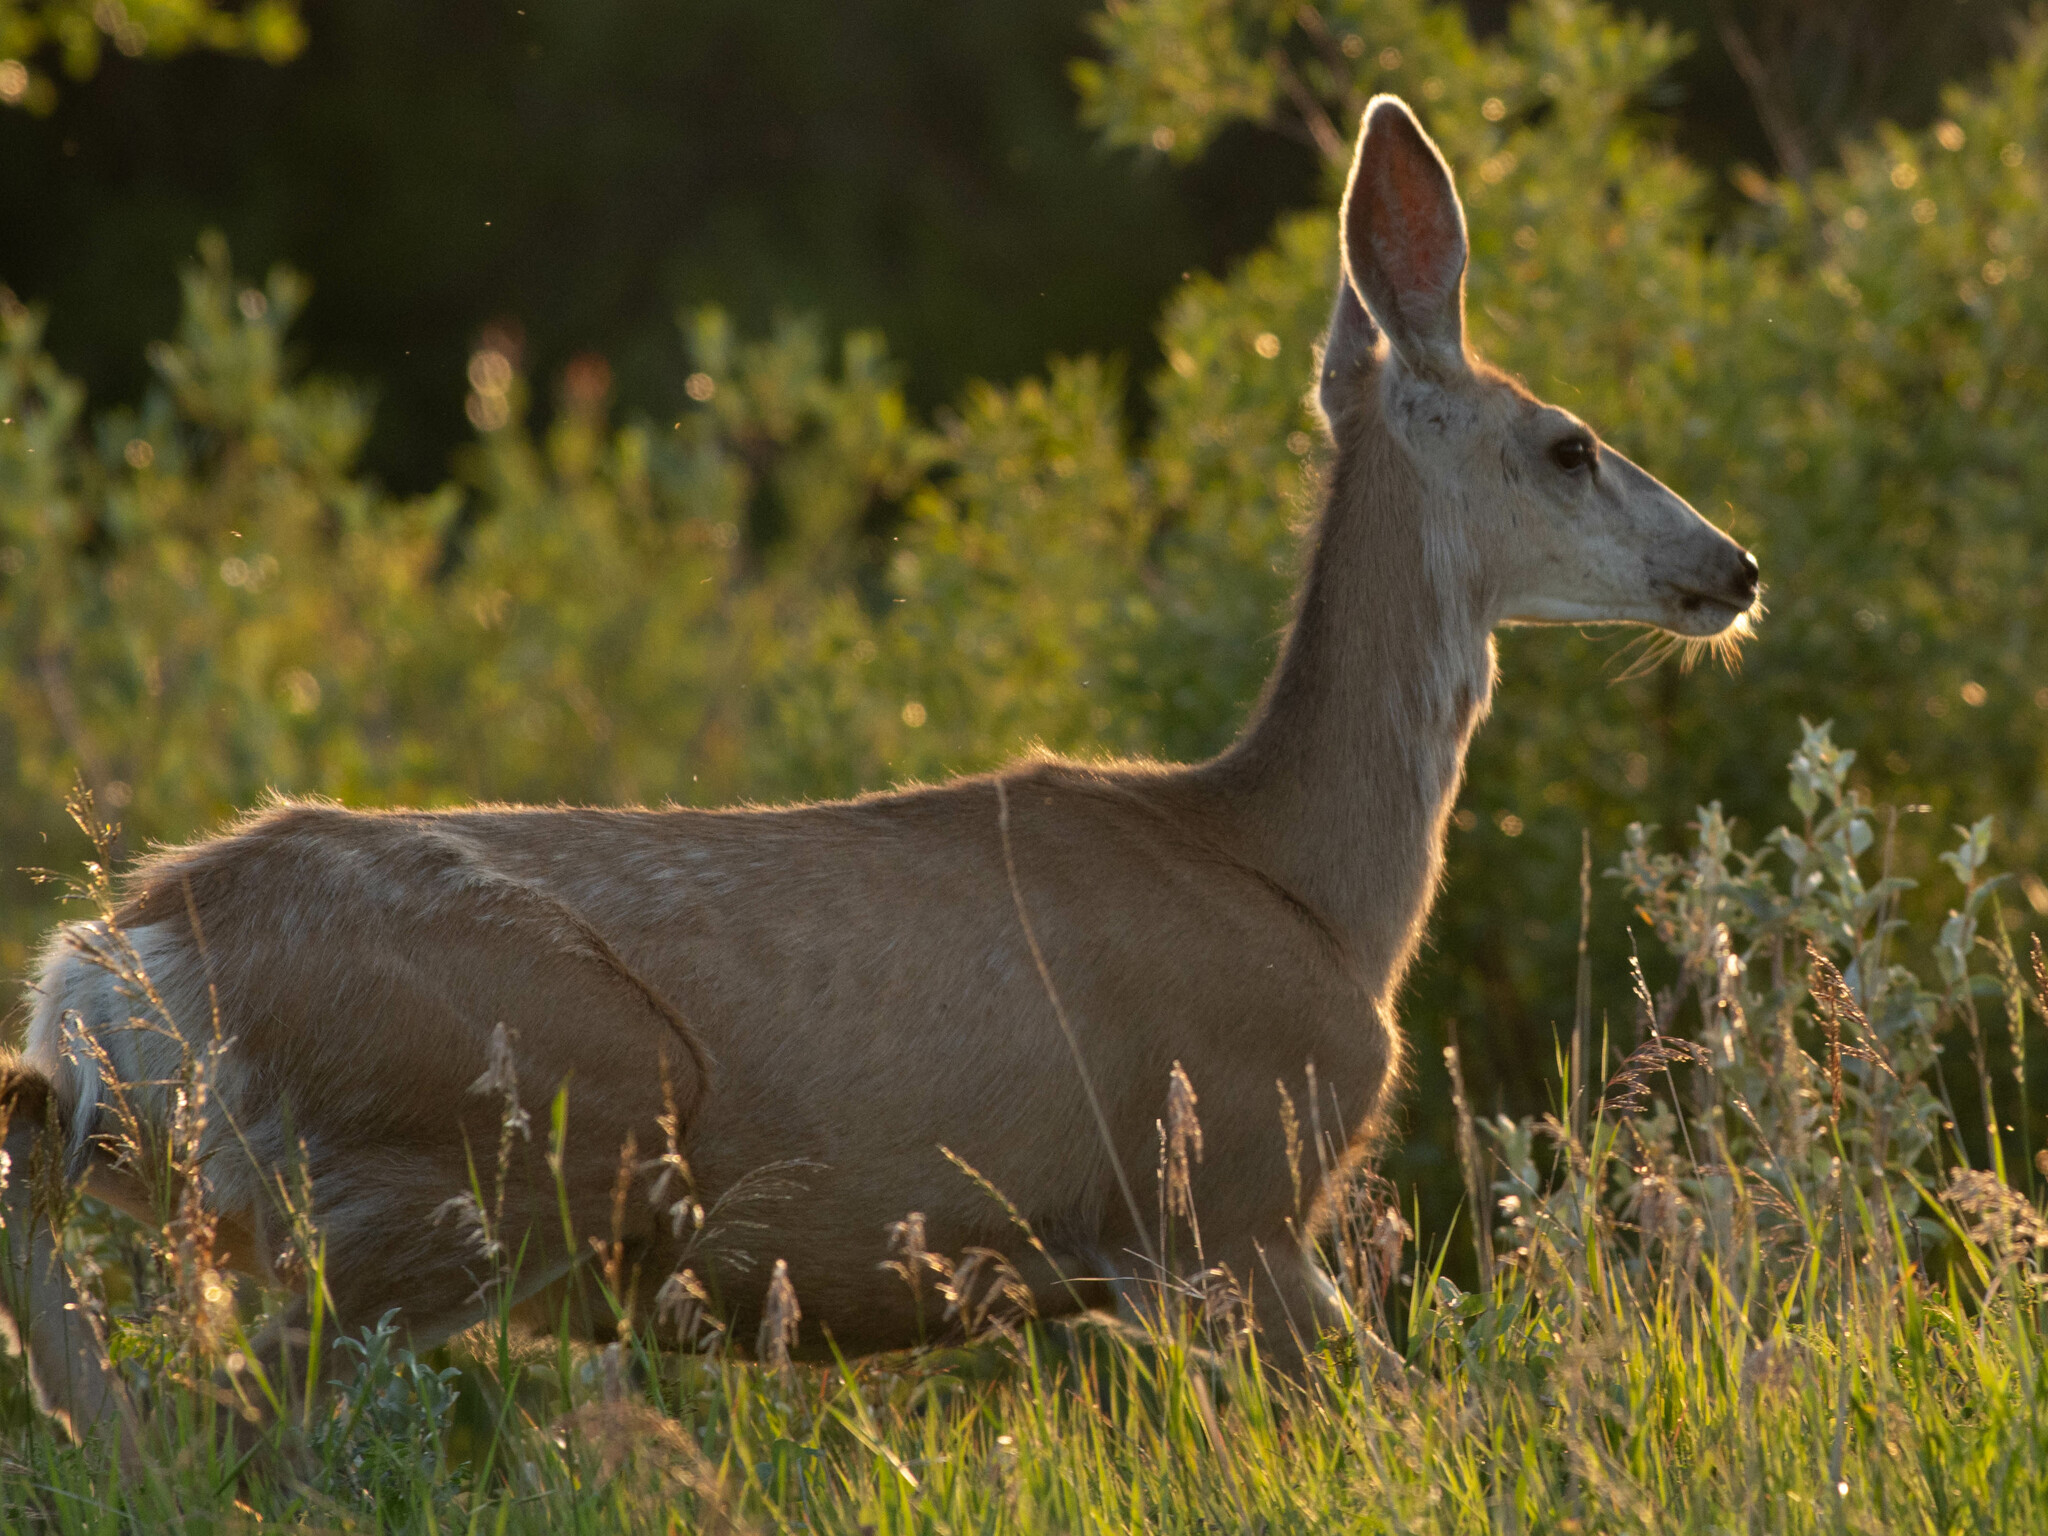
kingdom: Animalia
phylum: Chordata
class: Mammalia
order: Artiodactyla
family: Cervidae
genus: Odocoileus
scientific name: Odocoileus hemionus
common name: Mule deer
